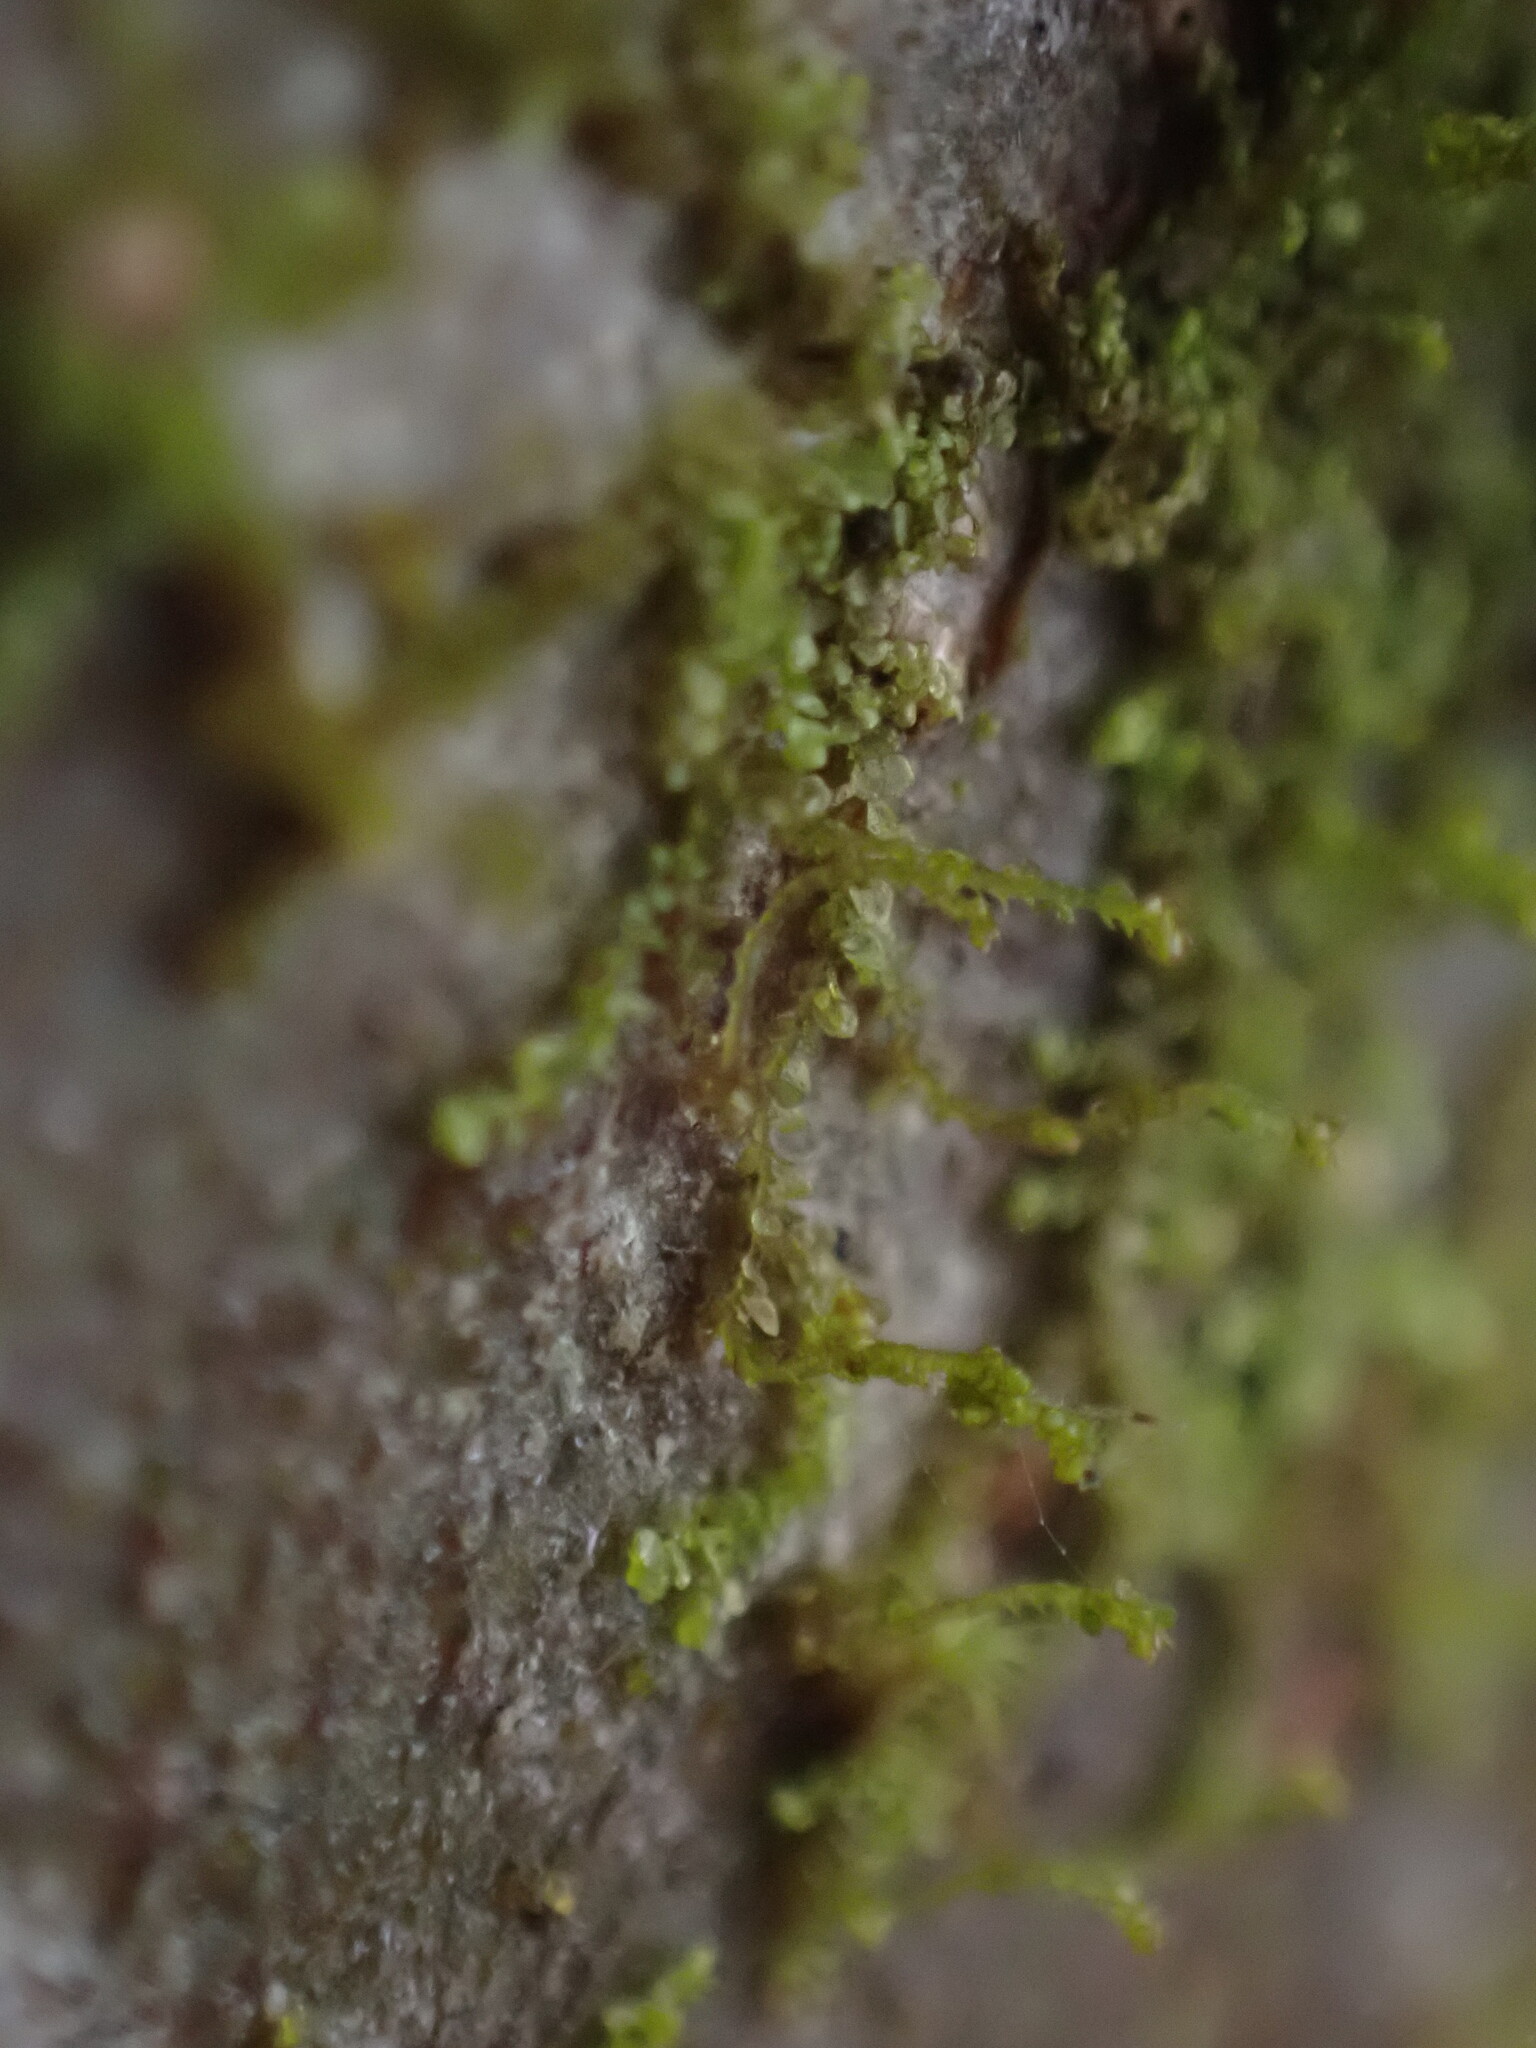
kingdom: Plantae
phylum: Marchantiophyta
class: Jungermanniopsida
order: Porellales
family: Frullaniaceae
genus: Frullania
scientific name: Frullania bolanderi
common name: Bolander s scalewort
